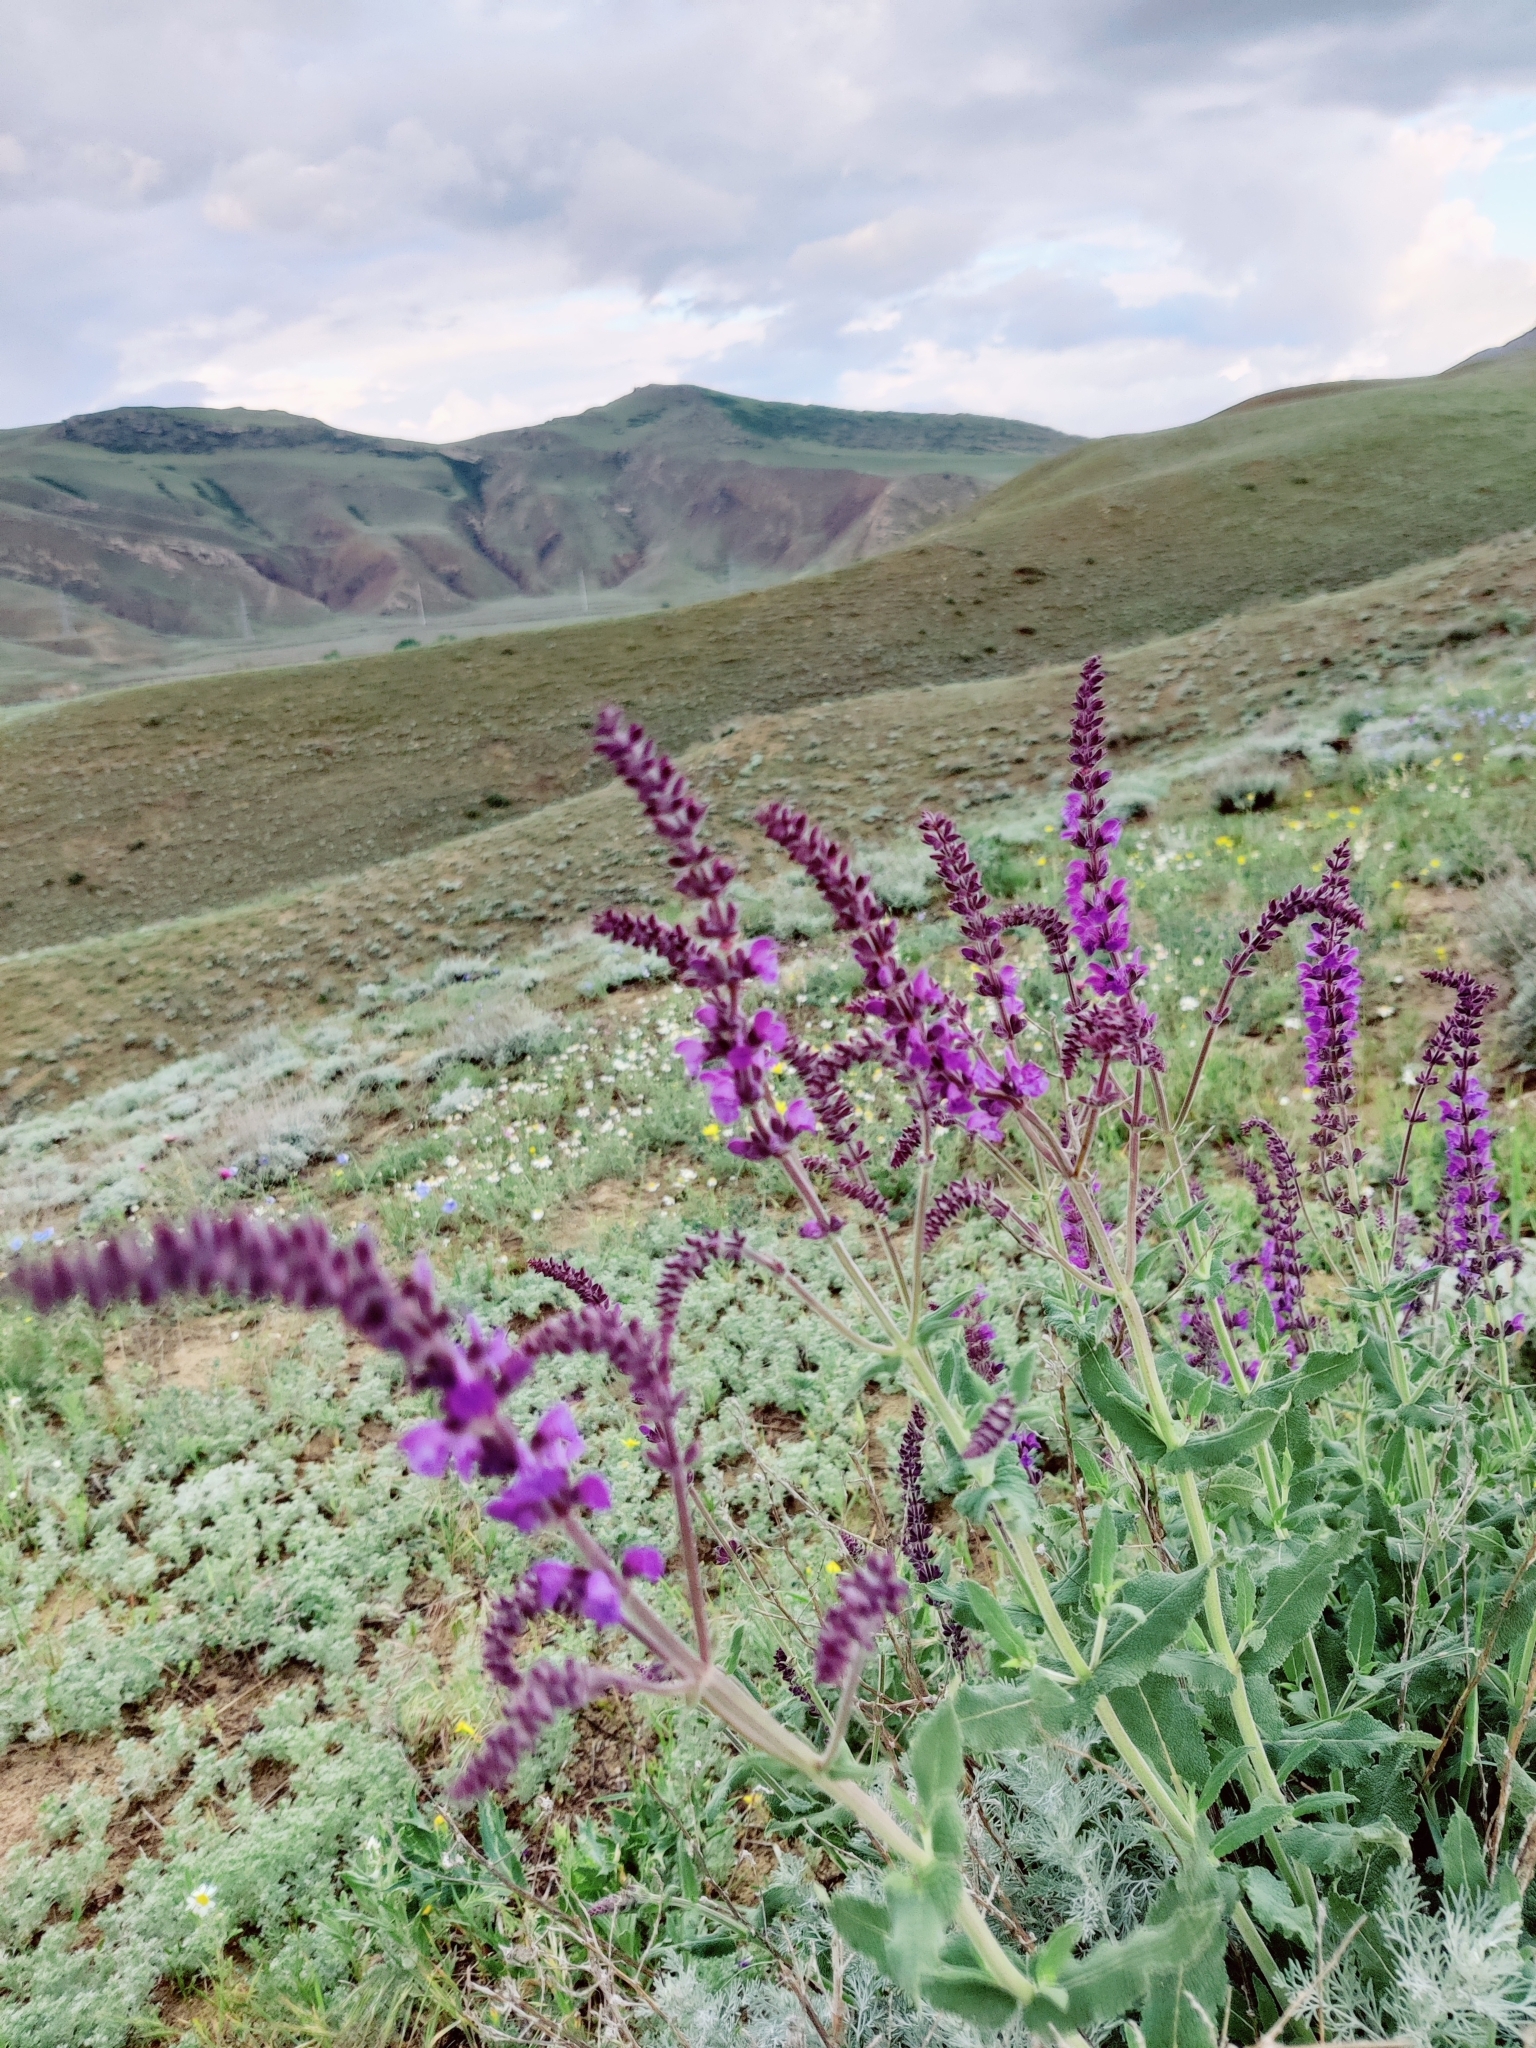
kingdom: Plantae
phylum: Tracheophyta
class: Magnoliopsida
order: Lamiales
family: Lamiaceae
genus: Salvia
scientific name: Salvia nemorosa
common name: Balkan clary
